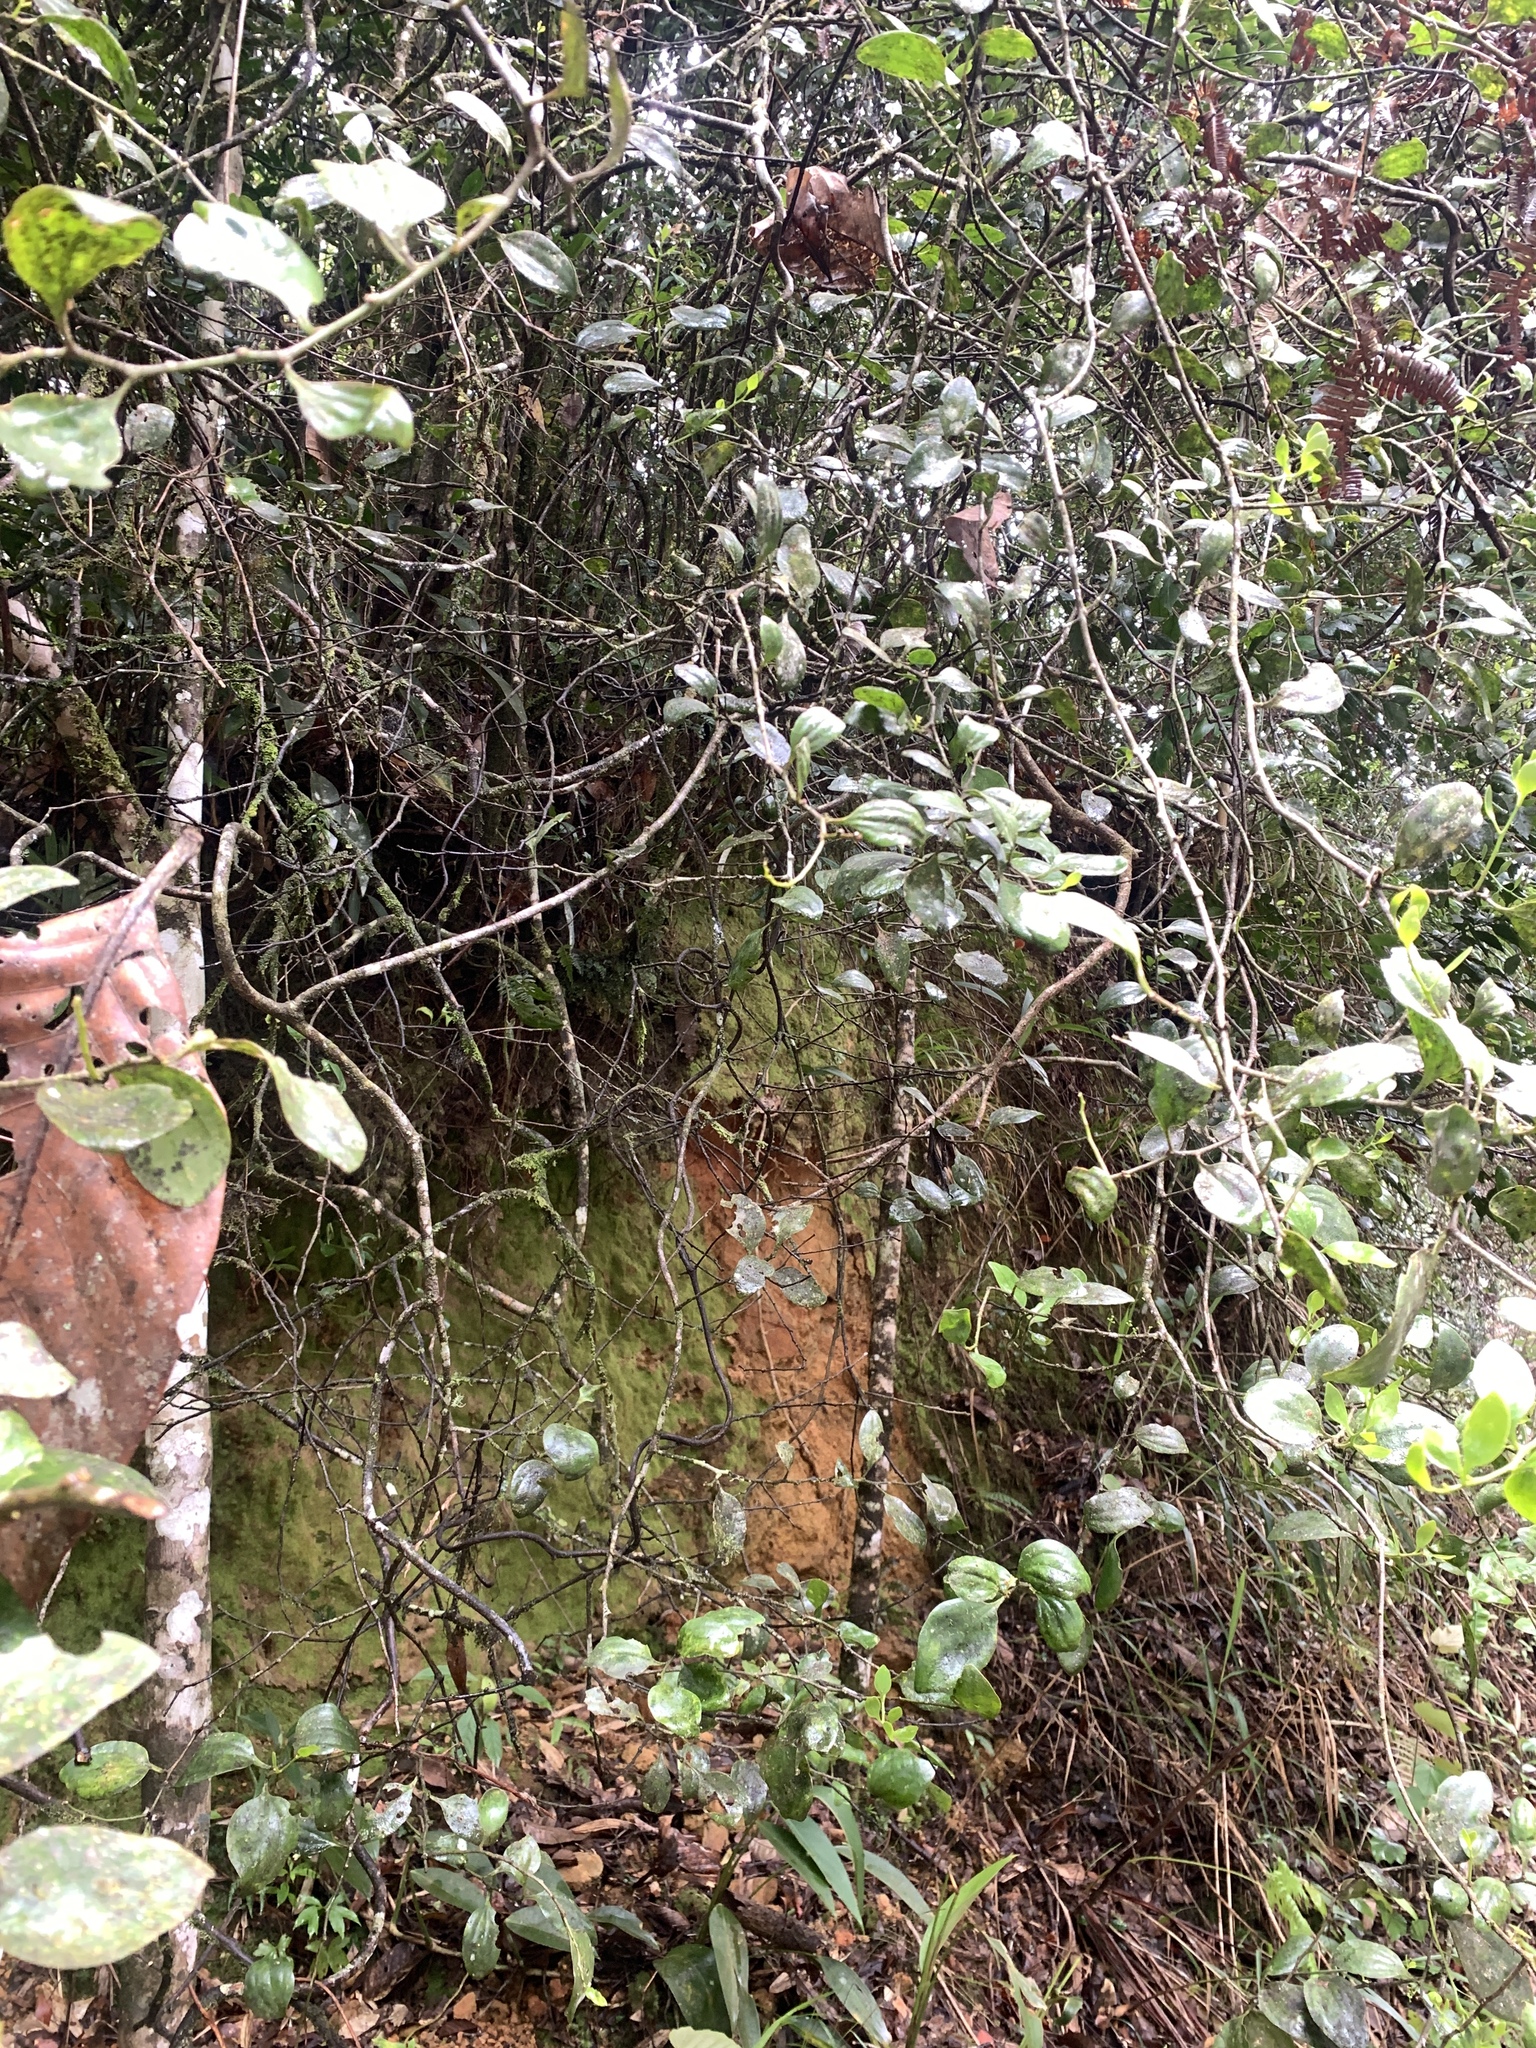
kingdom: Plantae
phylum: Tracheophyta
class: Magnoliopsida
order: Santalales
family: Amphorogynaceae
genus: Dendrotrophe
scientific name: Dendrotrophe varians
